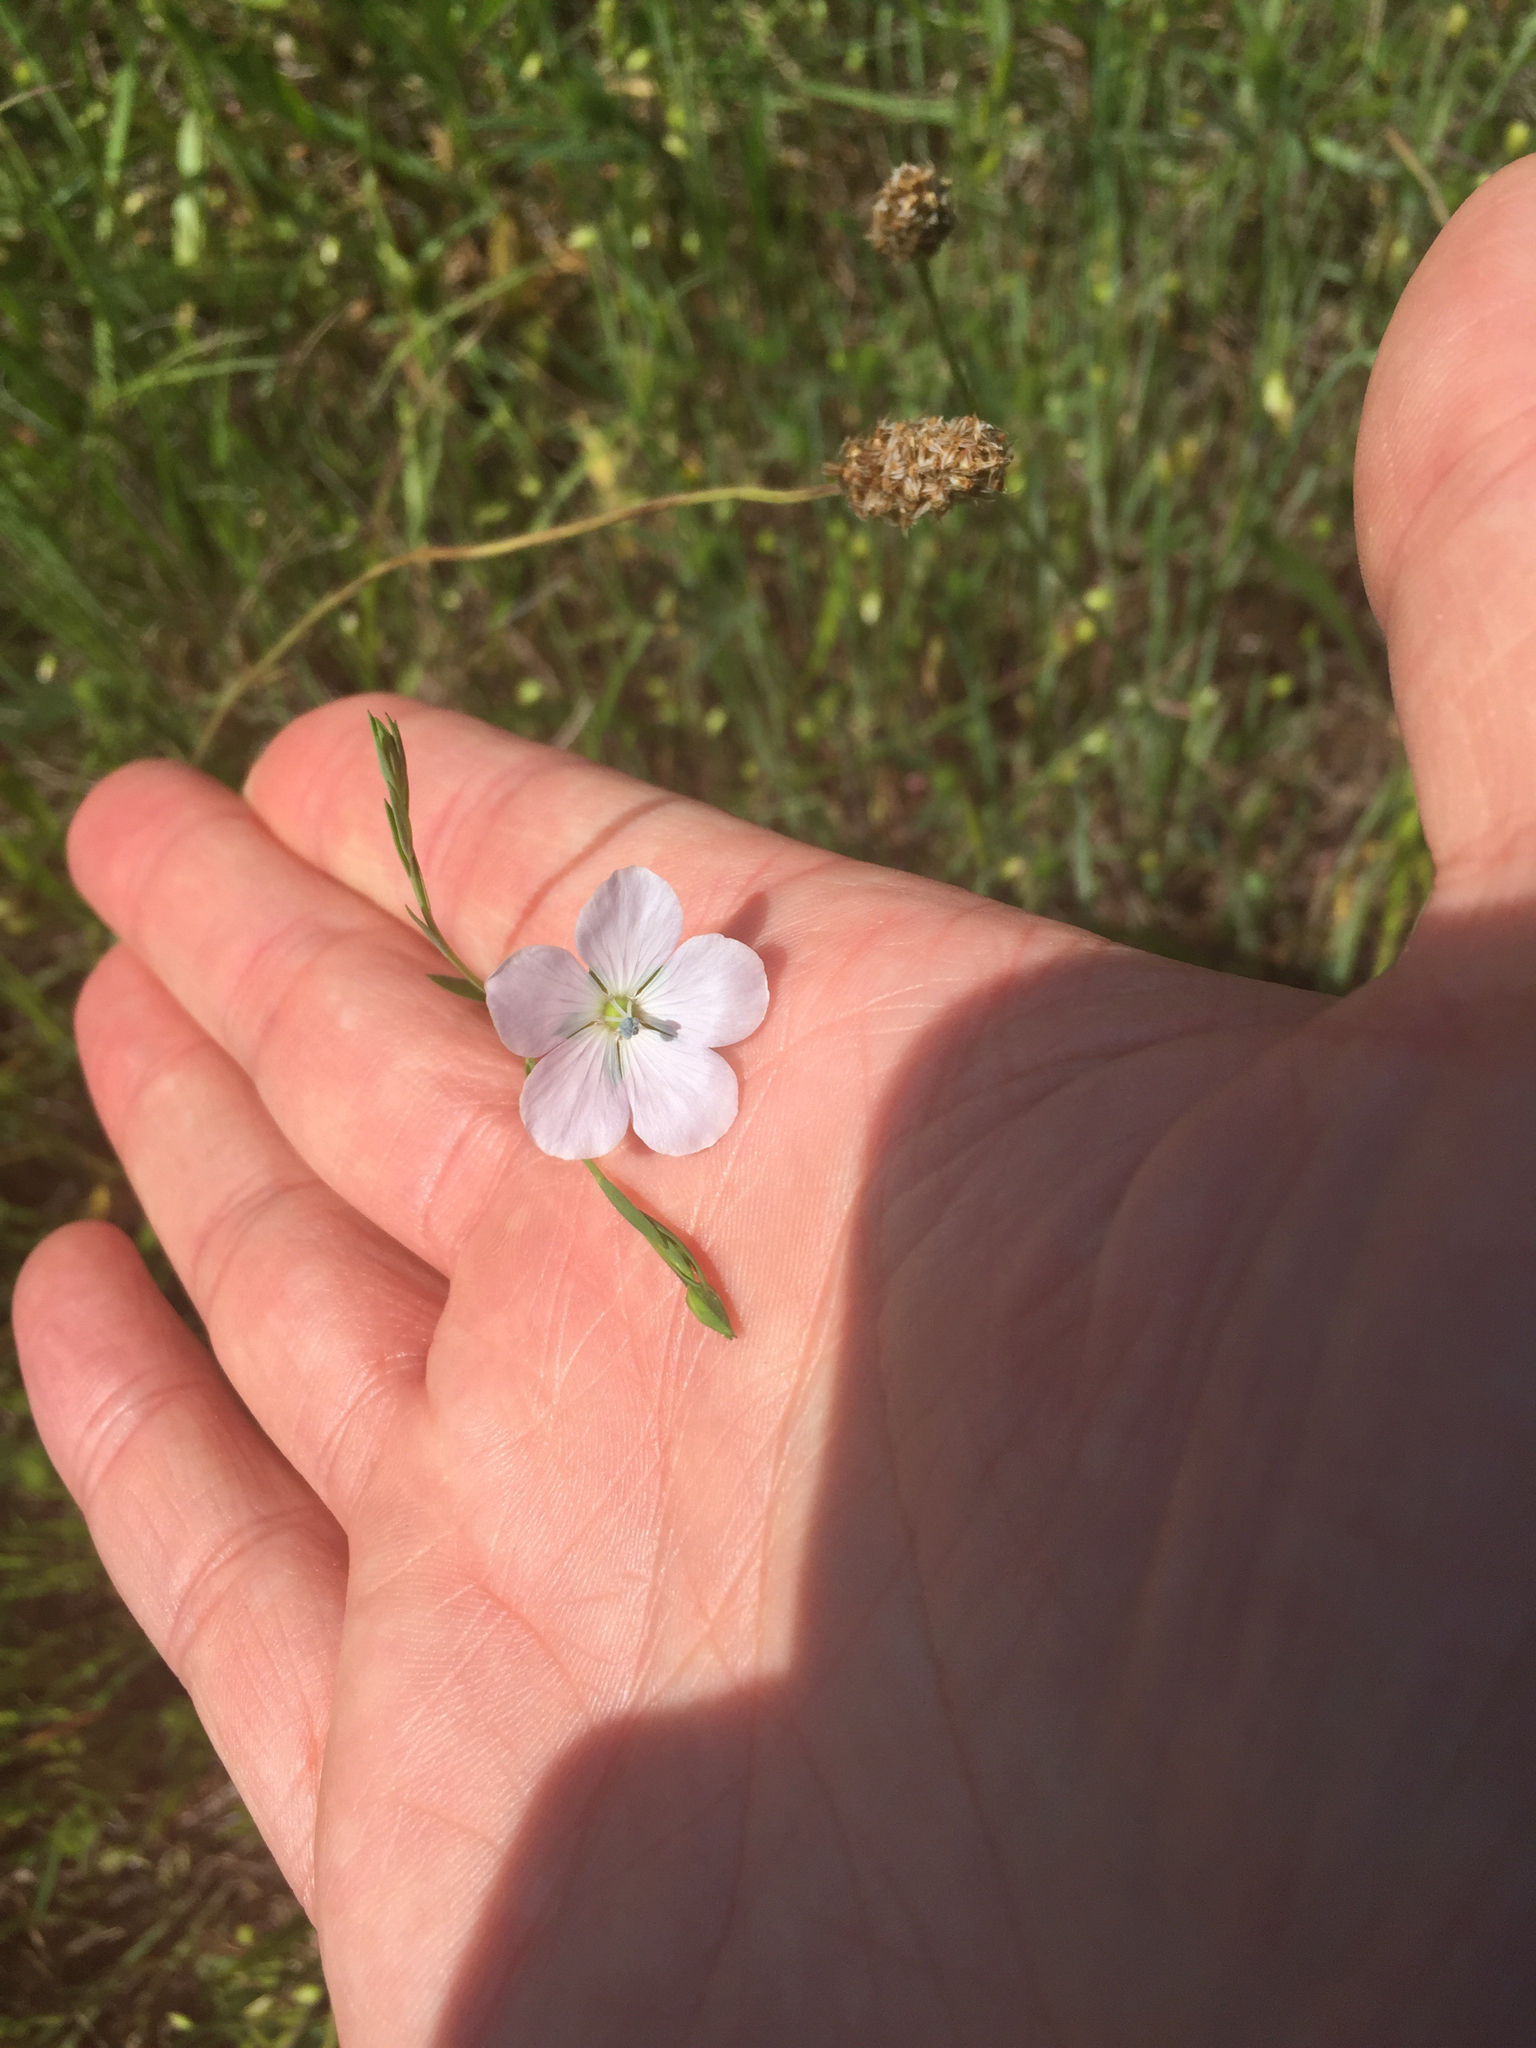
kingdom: Plantae
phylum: Tracheophyta
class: Magnoliopsida
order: Malpighiales
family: Linaceae
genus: Linum
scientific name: Linum bienne
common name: Pale flax
